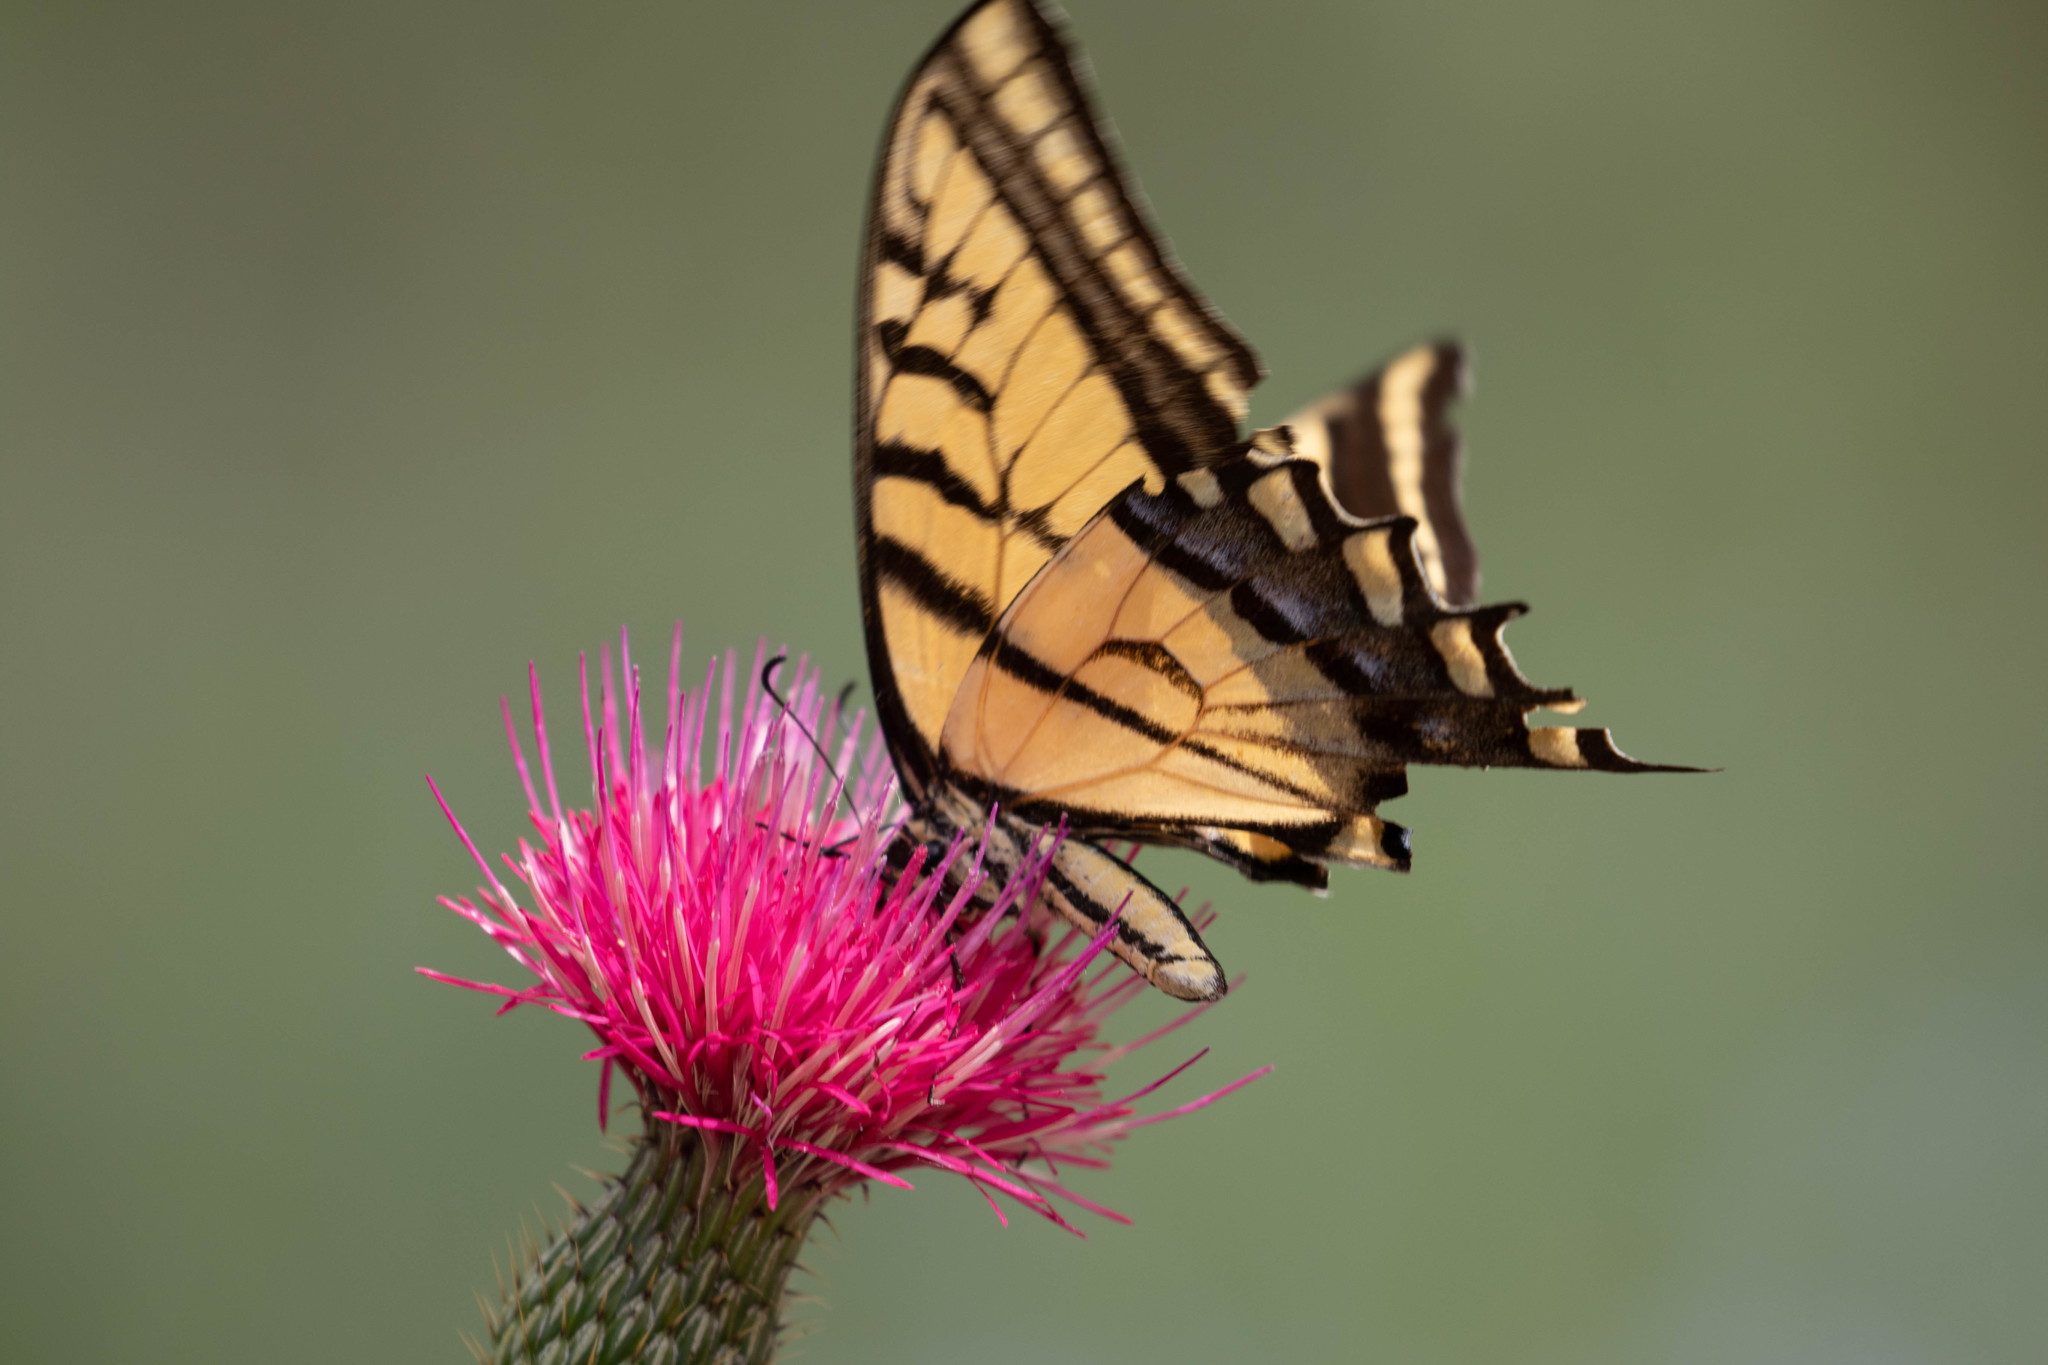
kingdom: Animalia
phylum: Arthropoda
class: Insecta
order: Lepidoptera
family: Papilionidae
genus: Papilio
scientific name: Papilio multicaudata
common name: Two-tailed tiger swallowtail
